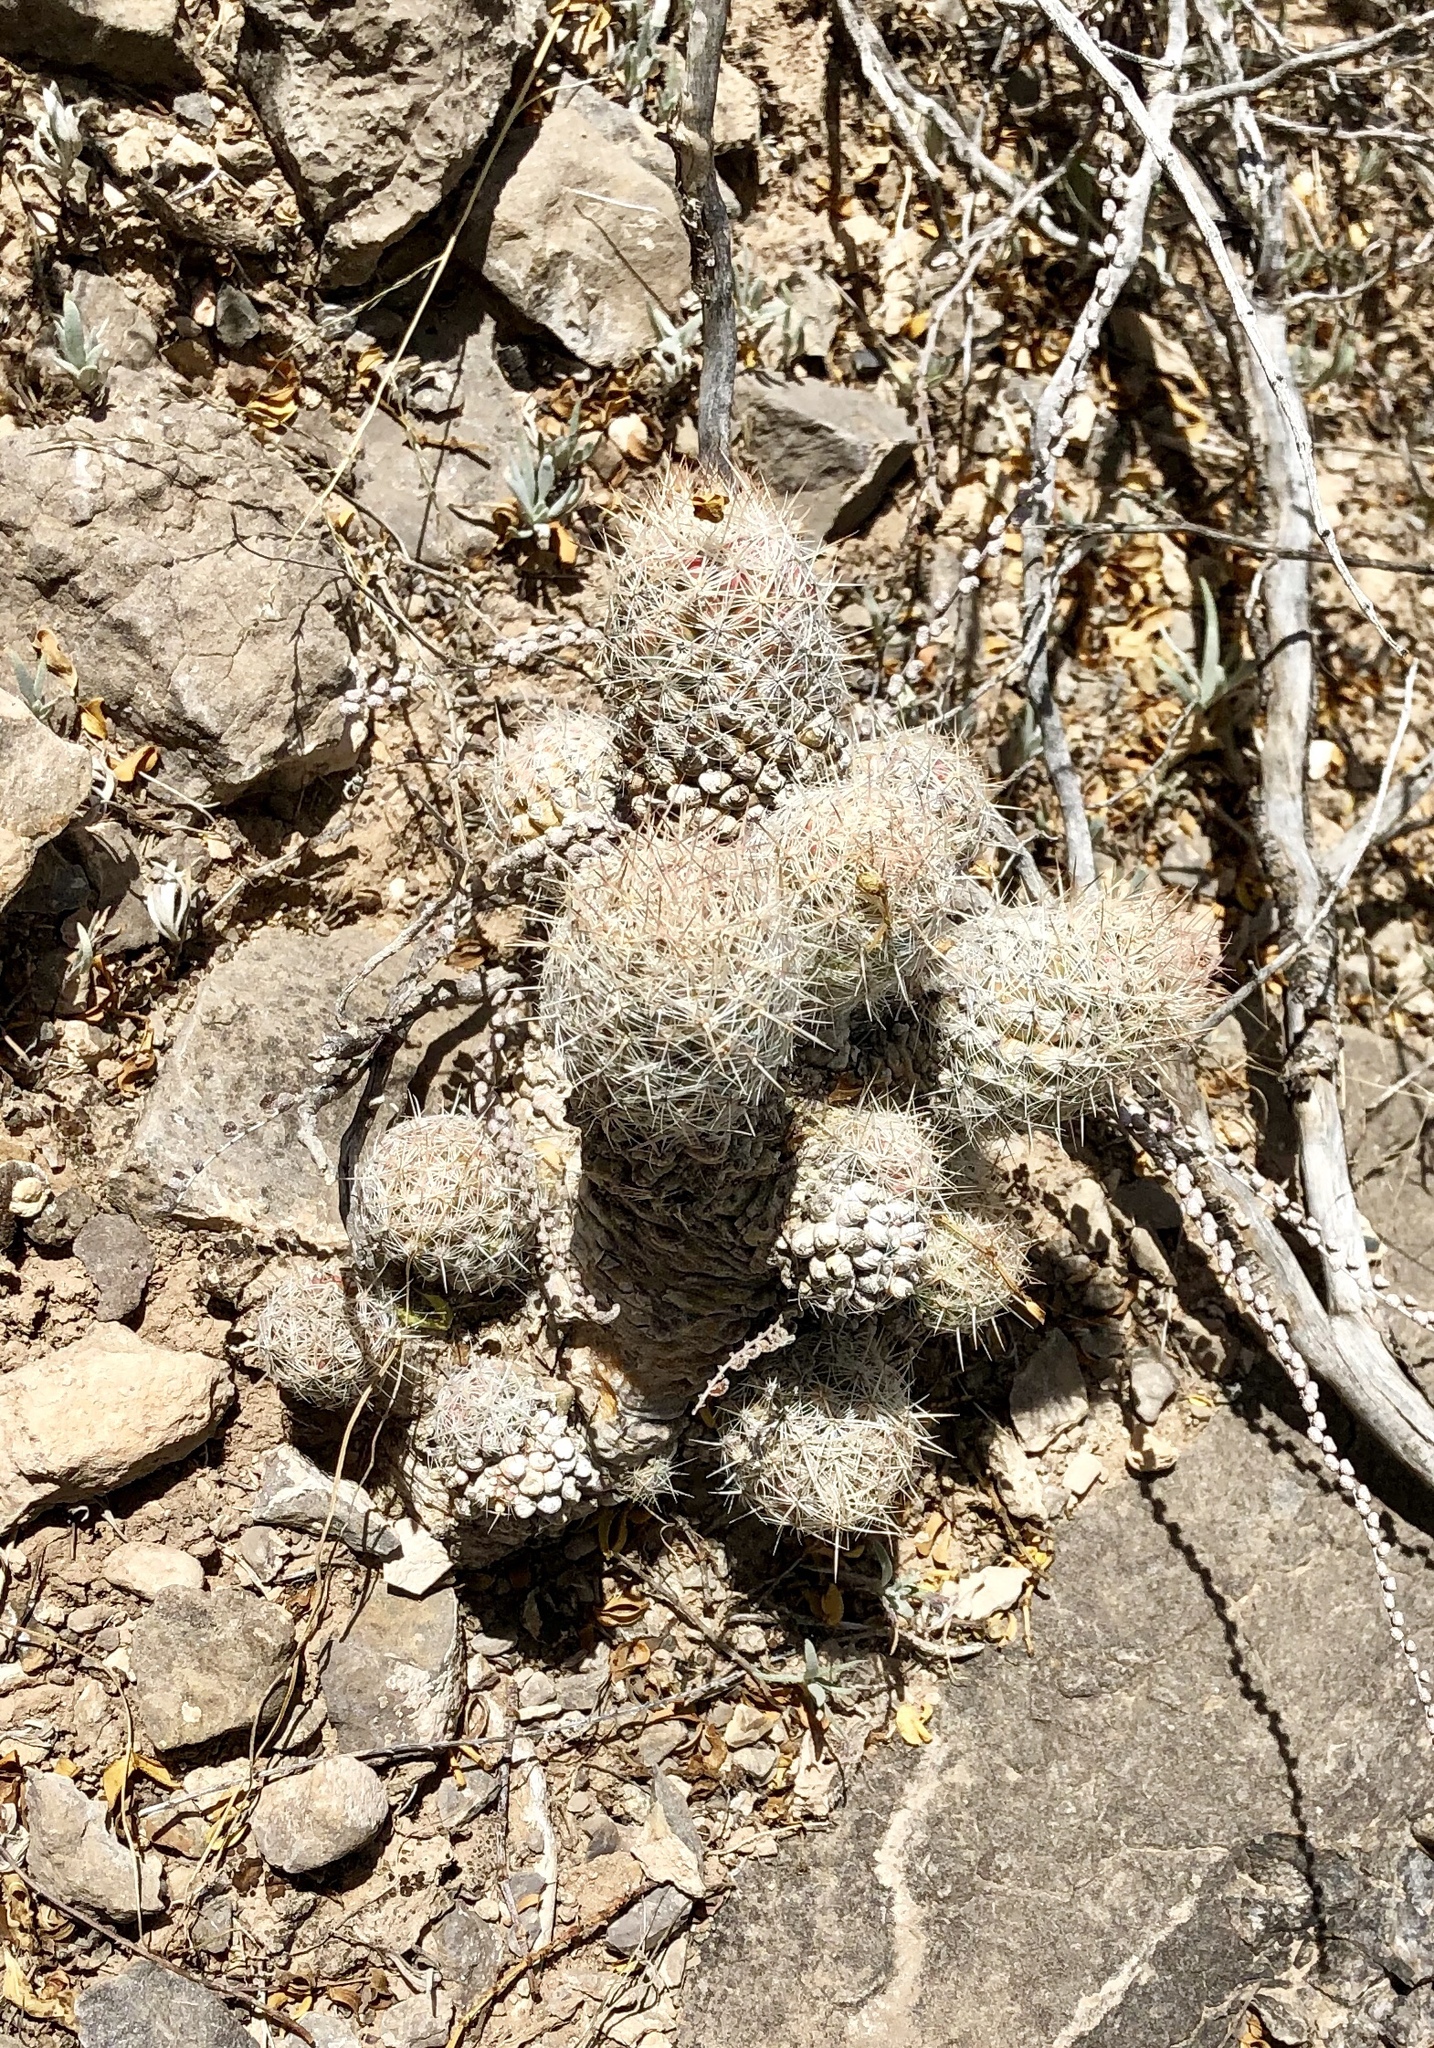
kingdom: Plantae
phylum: Tracheophyta
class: Magnoliopsida
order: Caryophyllales
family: Cactaceae
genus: Pelecyphora
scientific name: Pelecyphora tuberculosa
